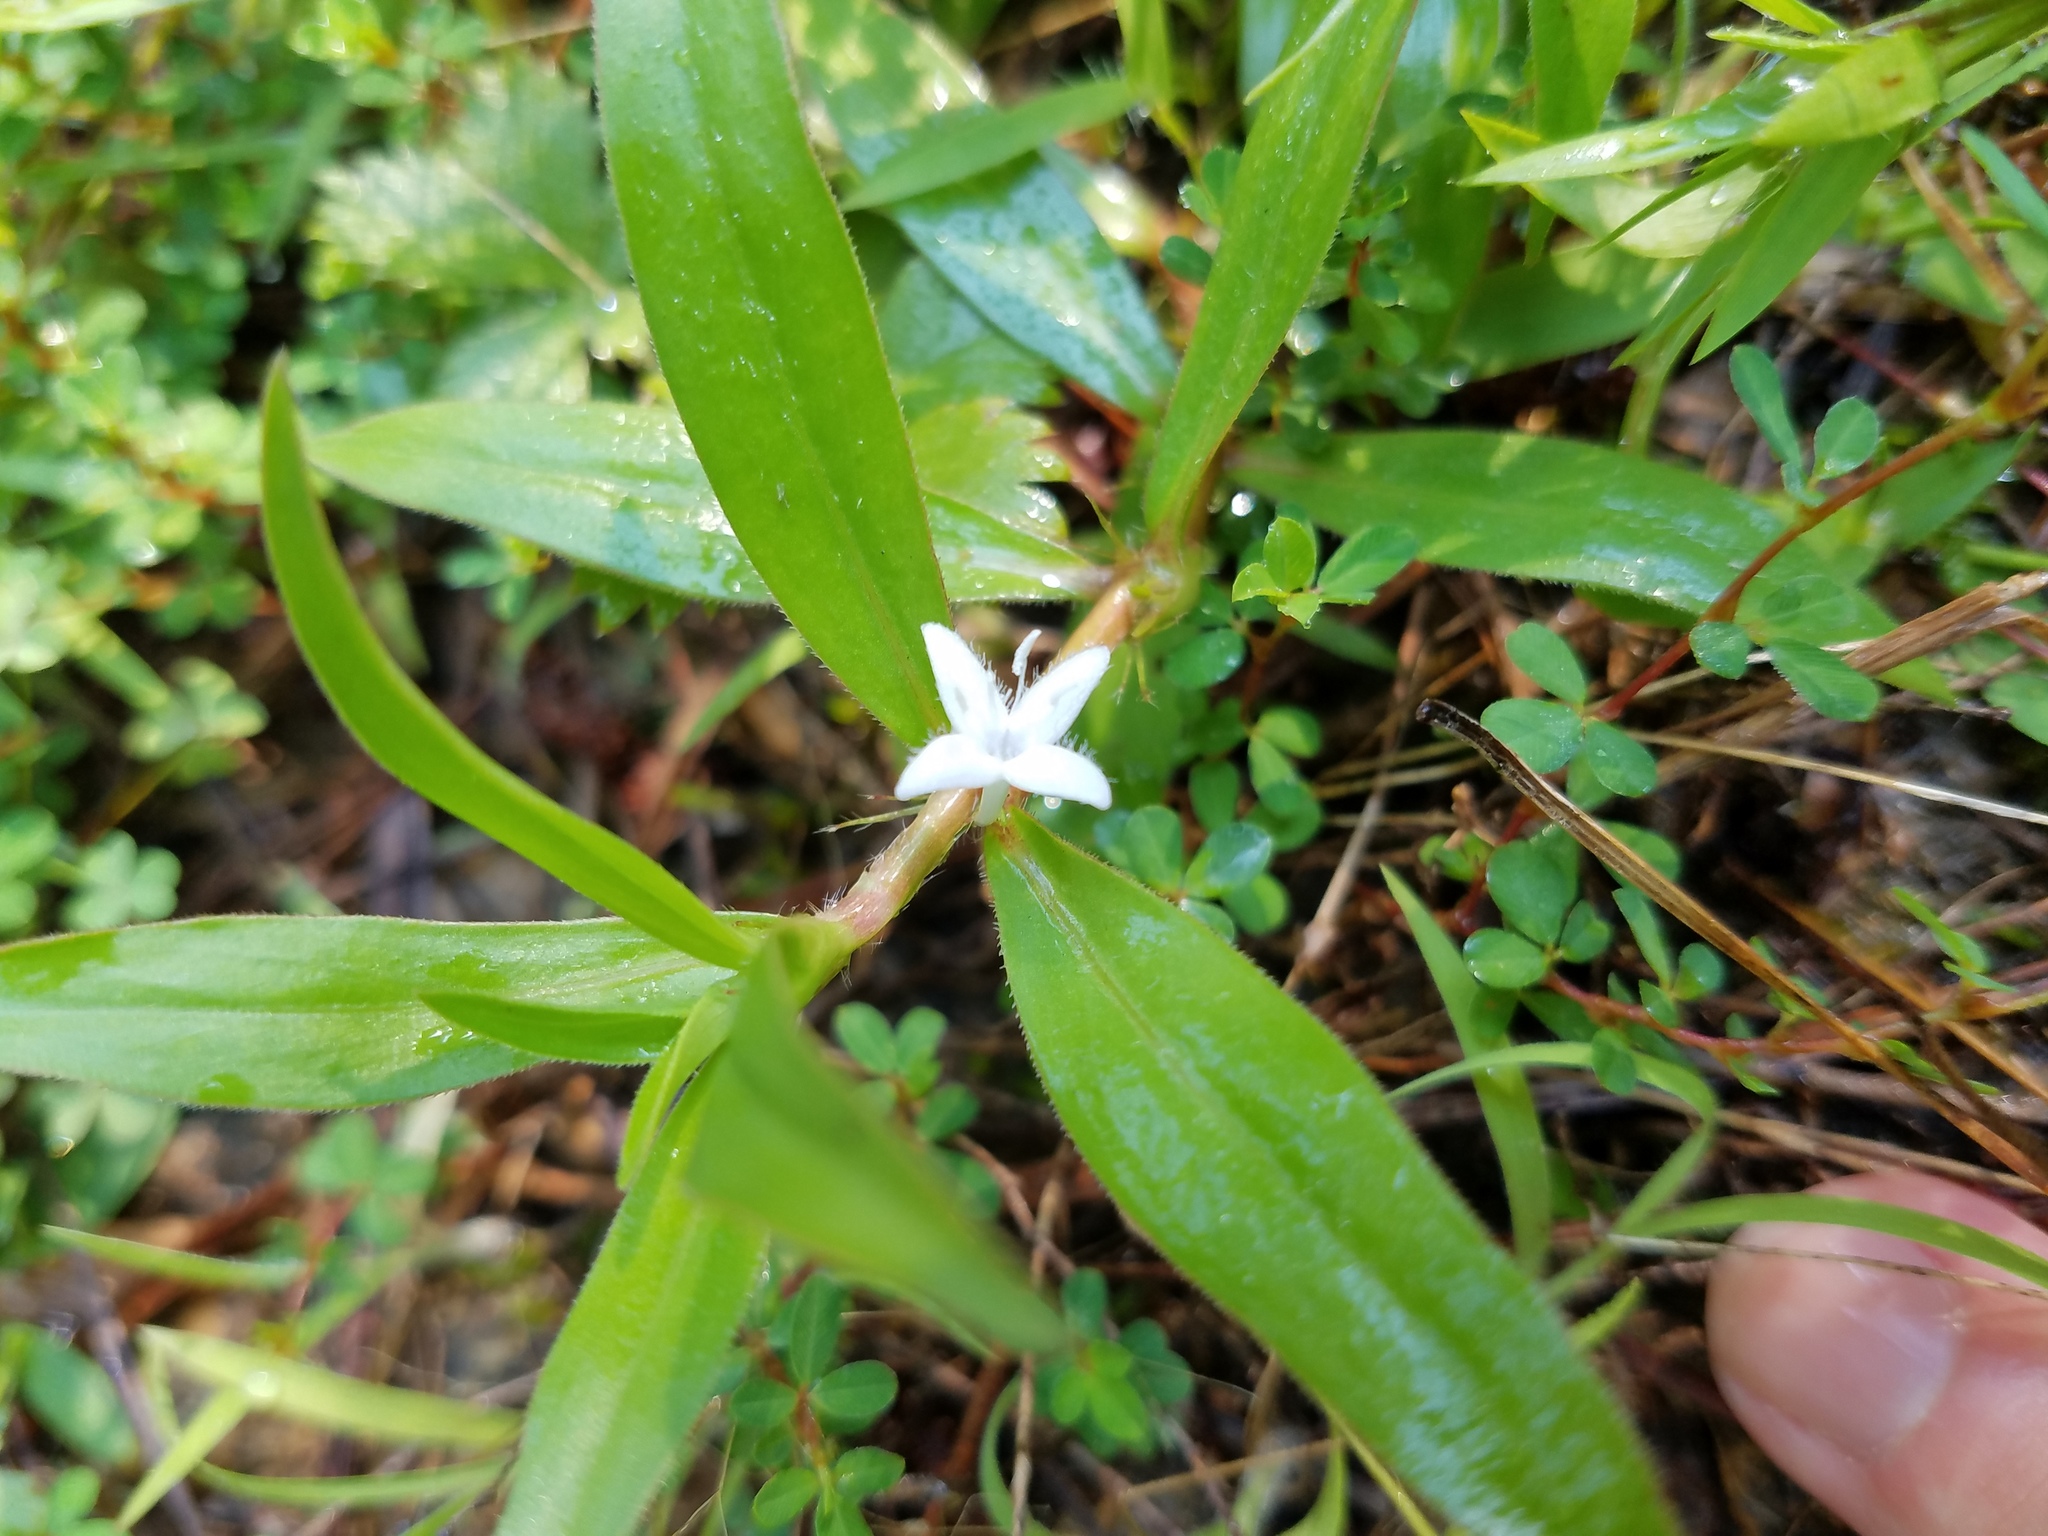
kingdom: Plantae
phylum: Tracheophyta
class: Magnoliopsida
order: Gentianales
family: Rubiaceae
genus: Diodia
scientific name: Diodia virginiana
